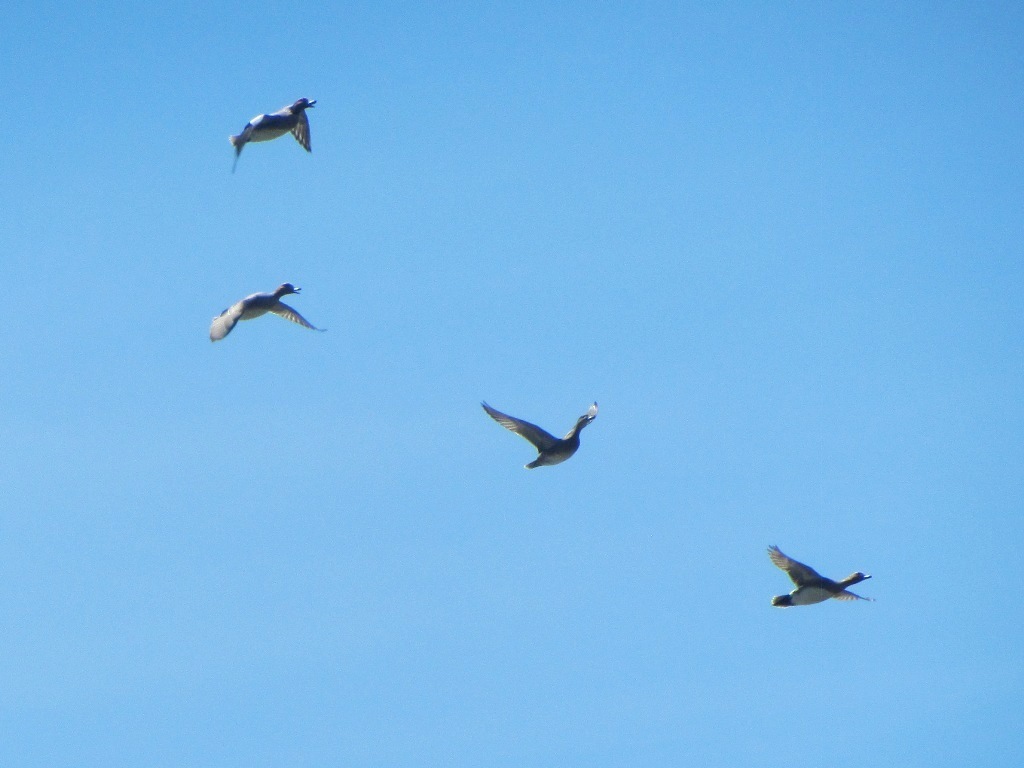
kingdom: Animalia
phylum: Chordata
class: Aves
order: Anseriformes
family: Anatidae
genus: Mareca
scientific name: Mareca penelope
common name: Eurasian wigeon
